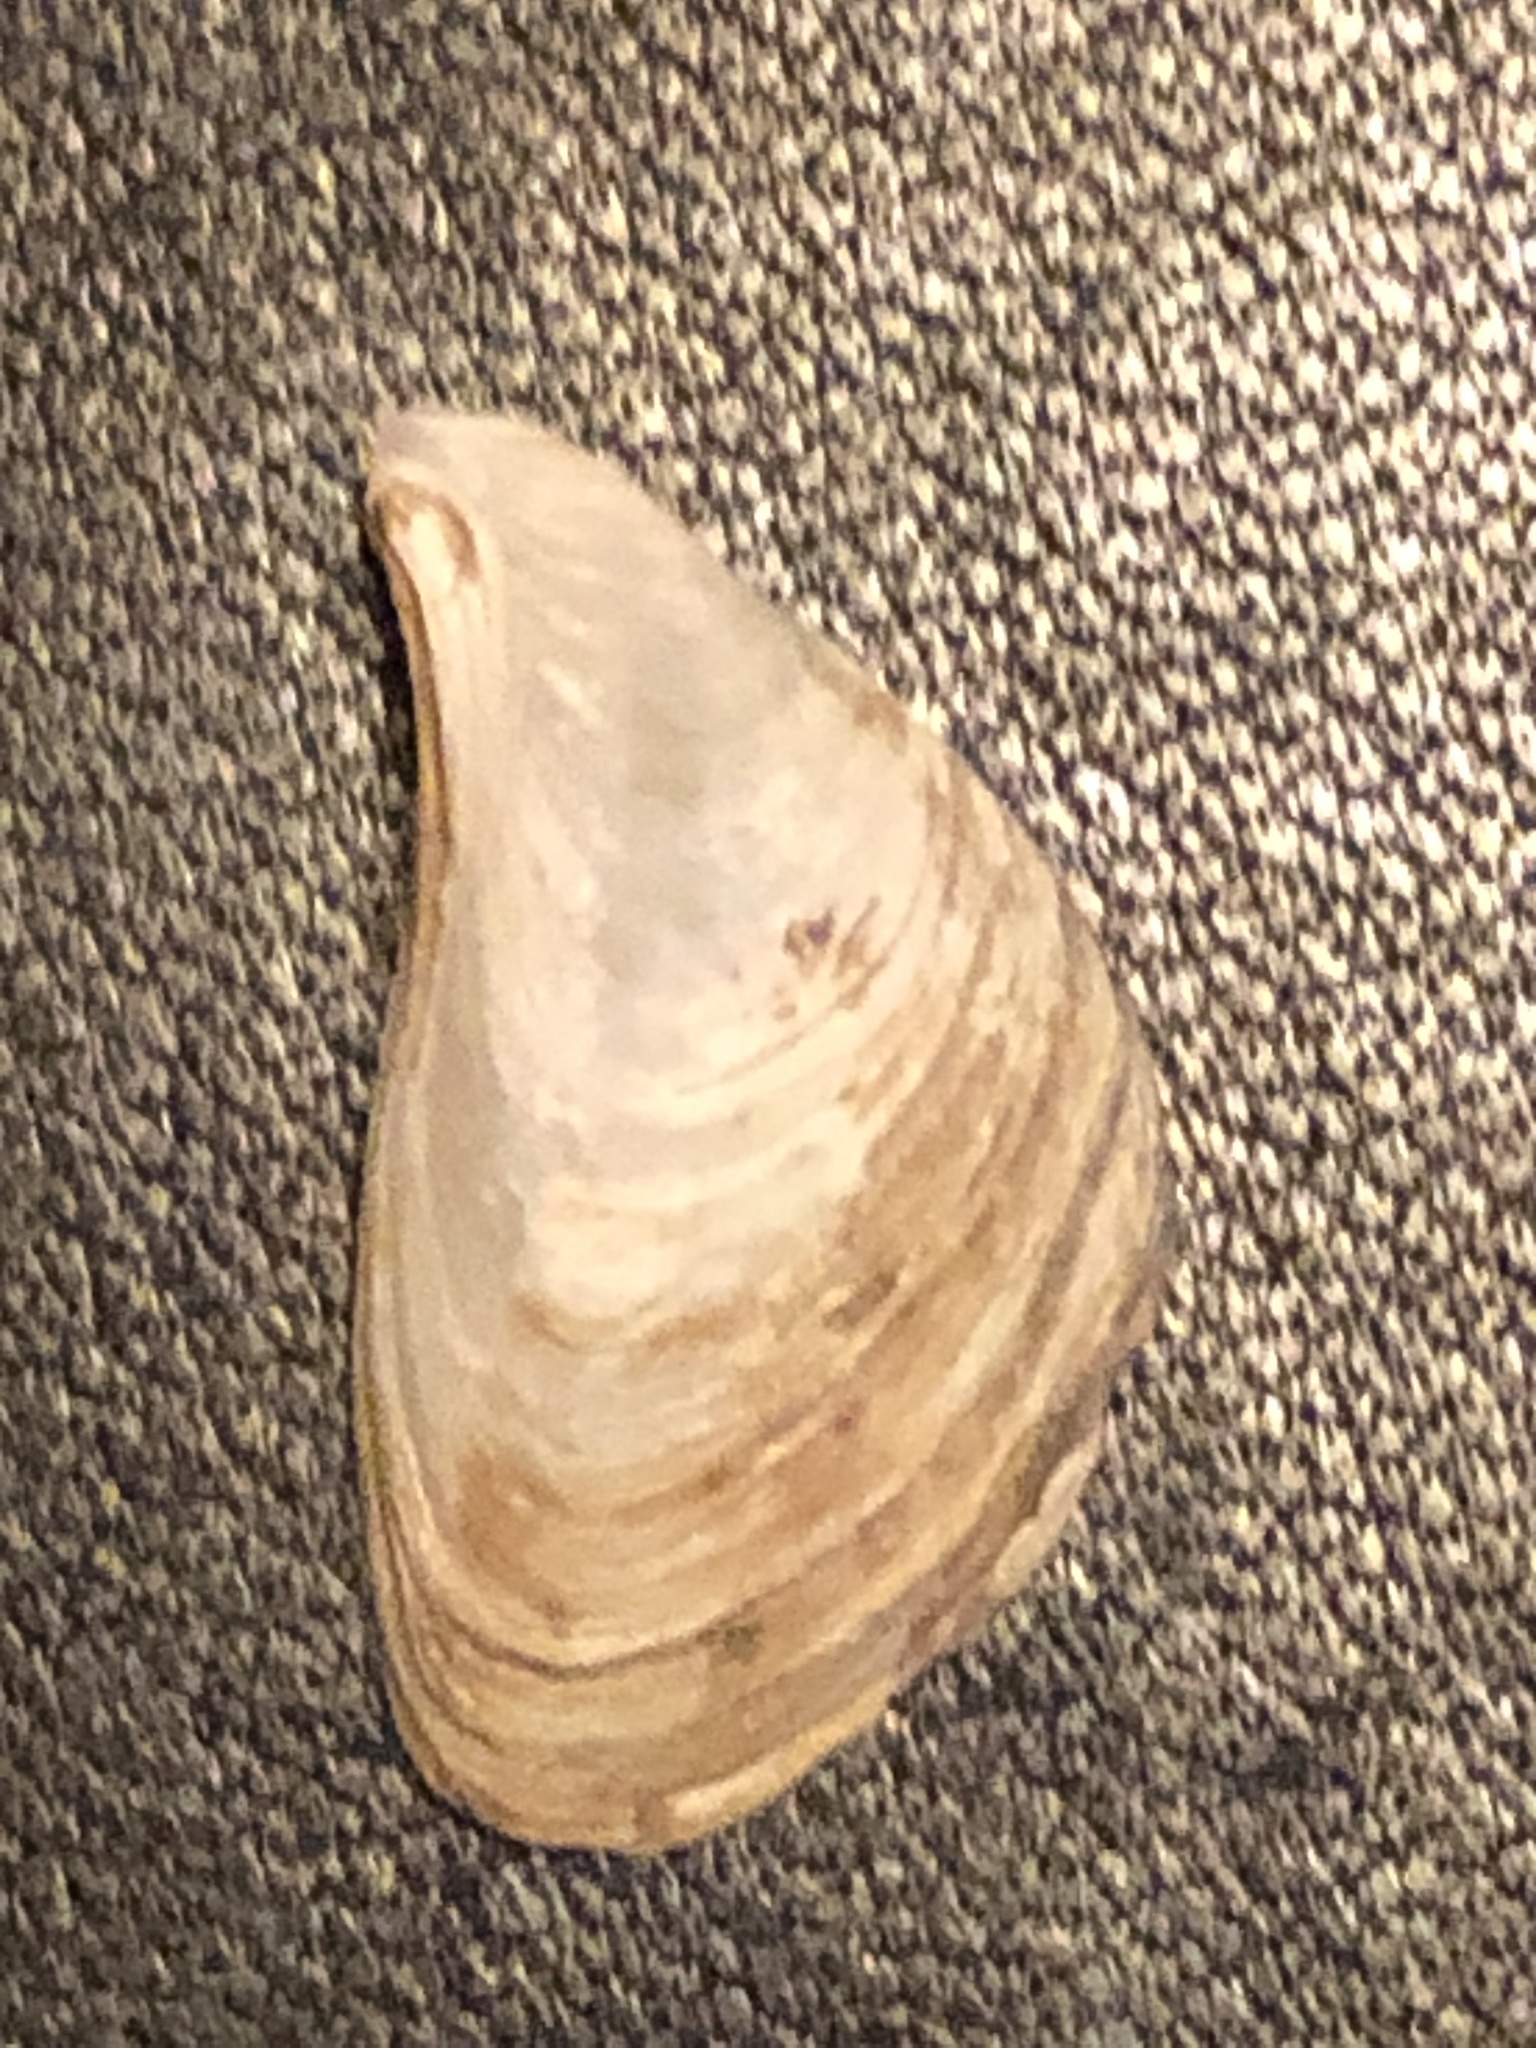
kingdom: Animalia
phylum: Mollusca
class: Bivalvia
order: Myida
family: Dreissenidae
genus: Dreissena
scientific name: Dreissena bugensis
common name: Quagga mussel
